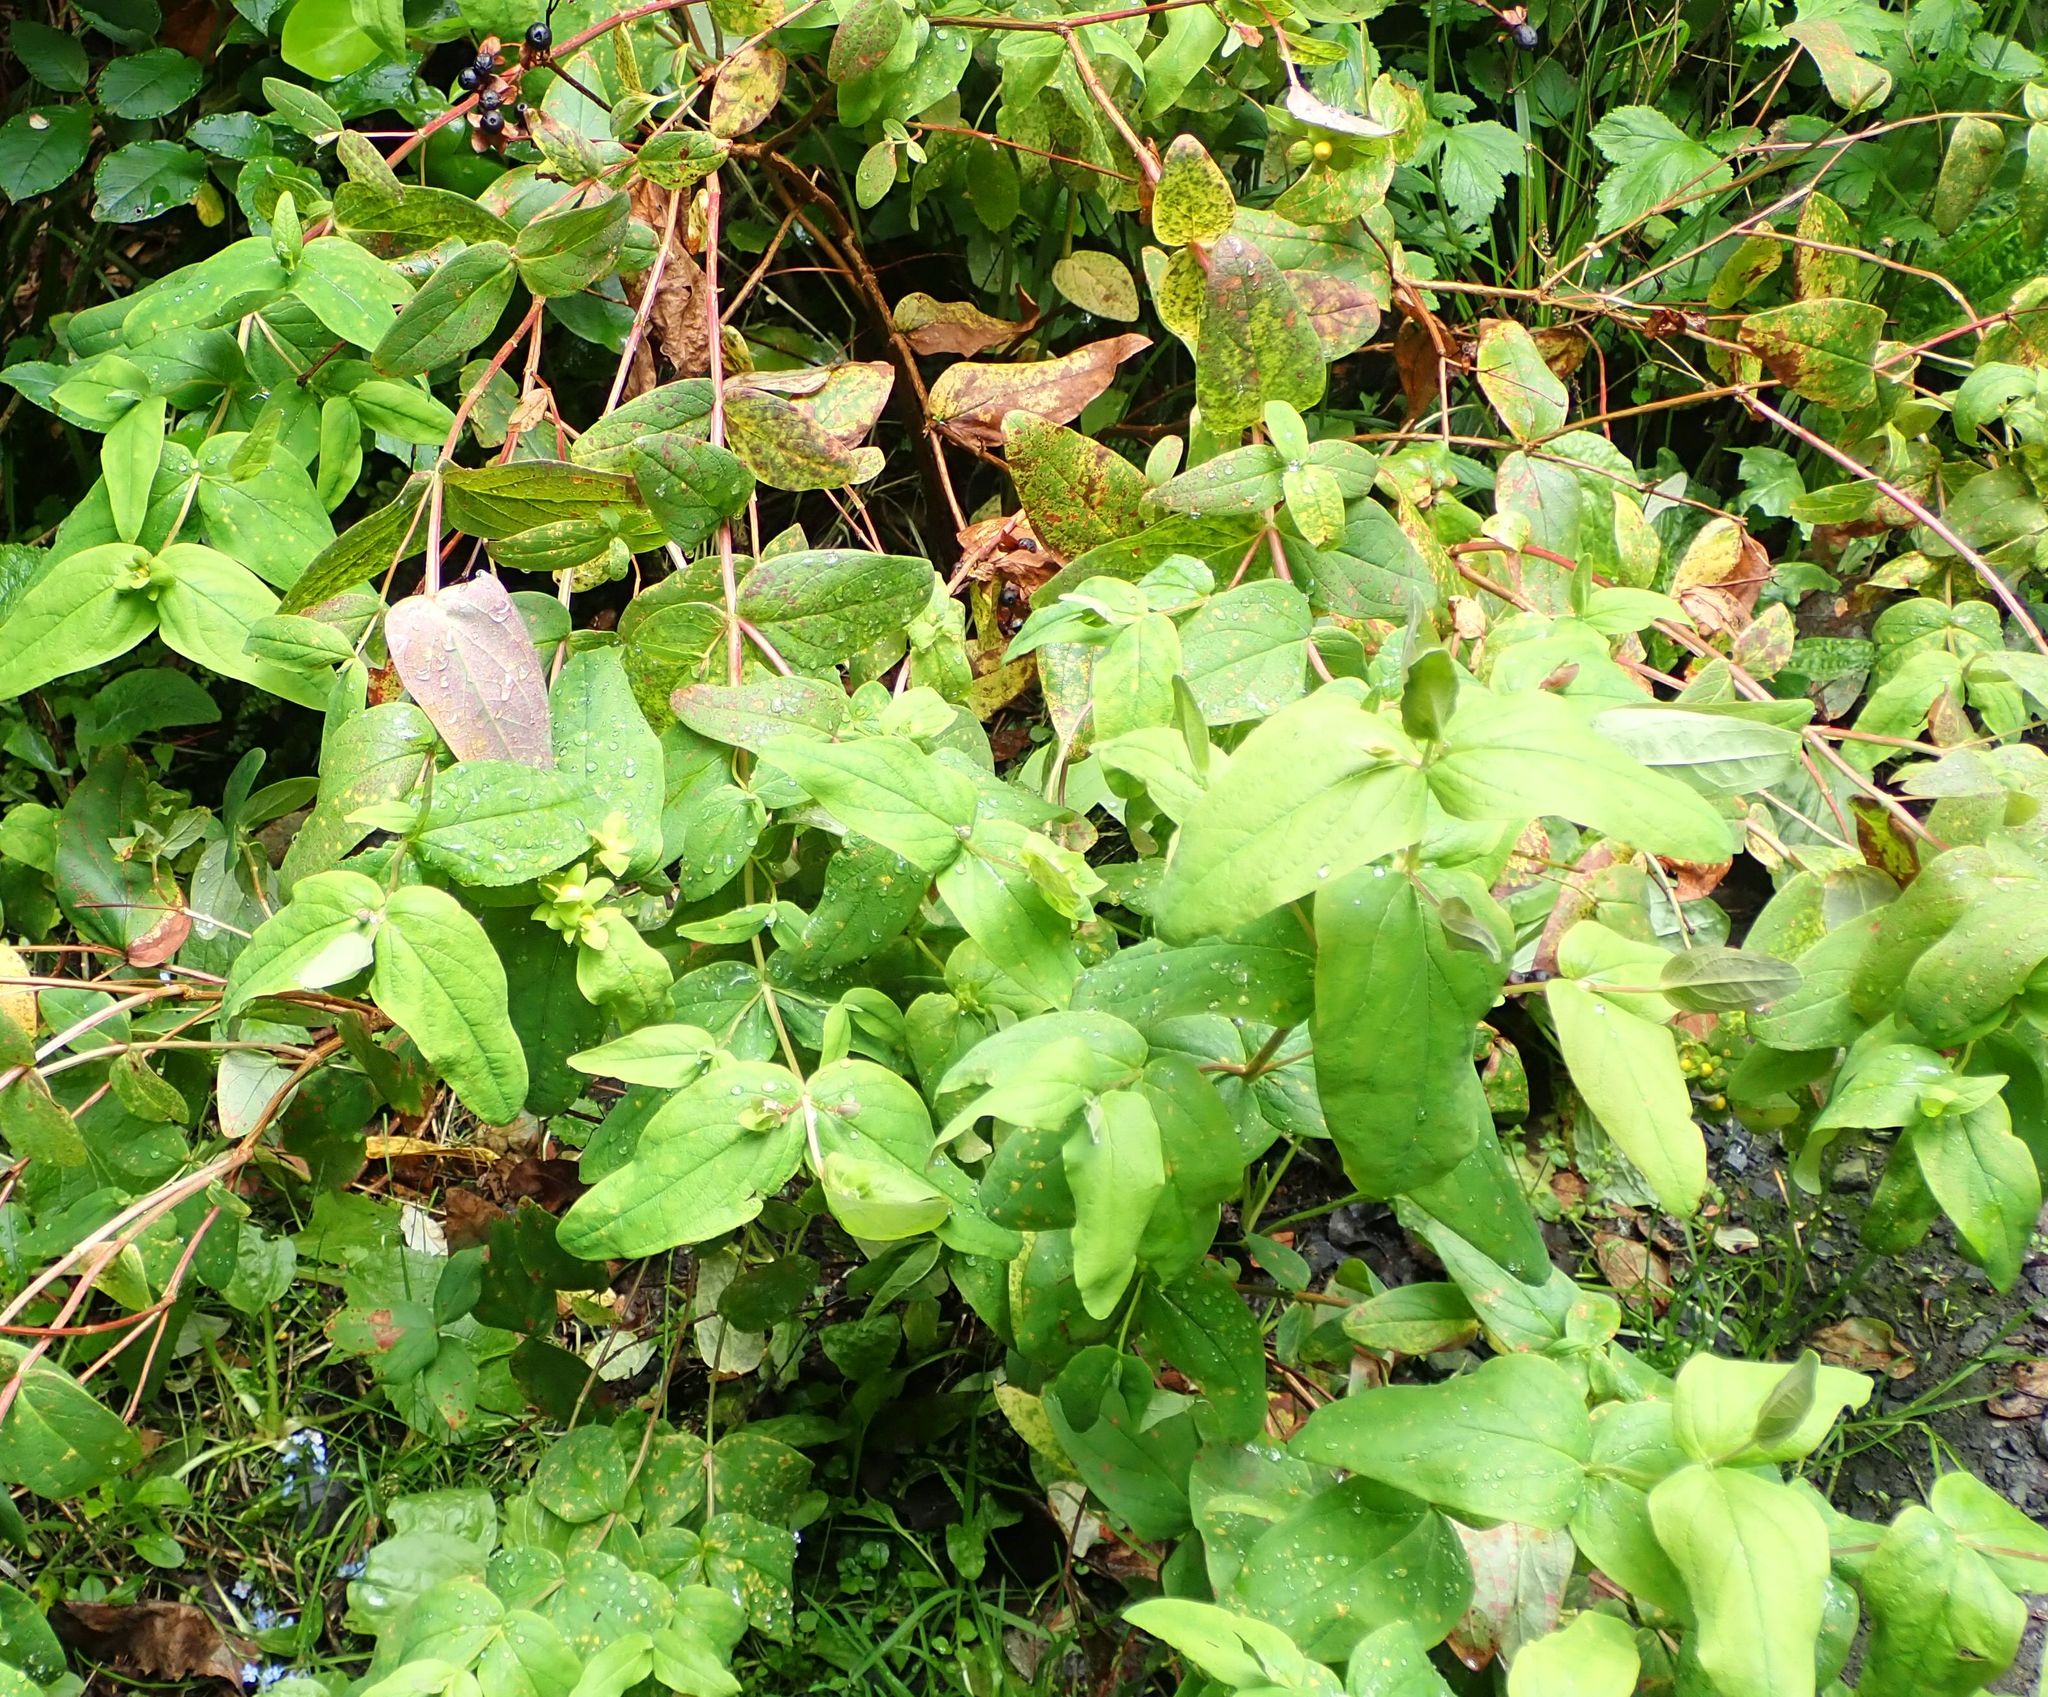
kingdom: Plantae
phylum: Tracheophyta
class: Magnoliopsida
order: Malpighiales
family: Hypericaceae
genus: Hypericum
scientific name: Hypericum androsaemum
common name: Sweet-amber
